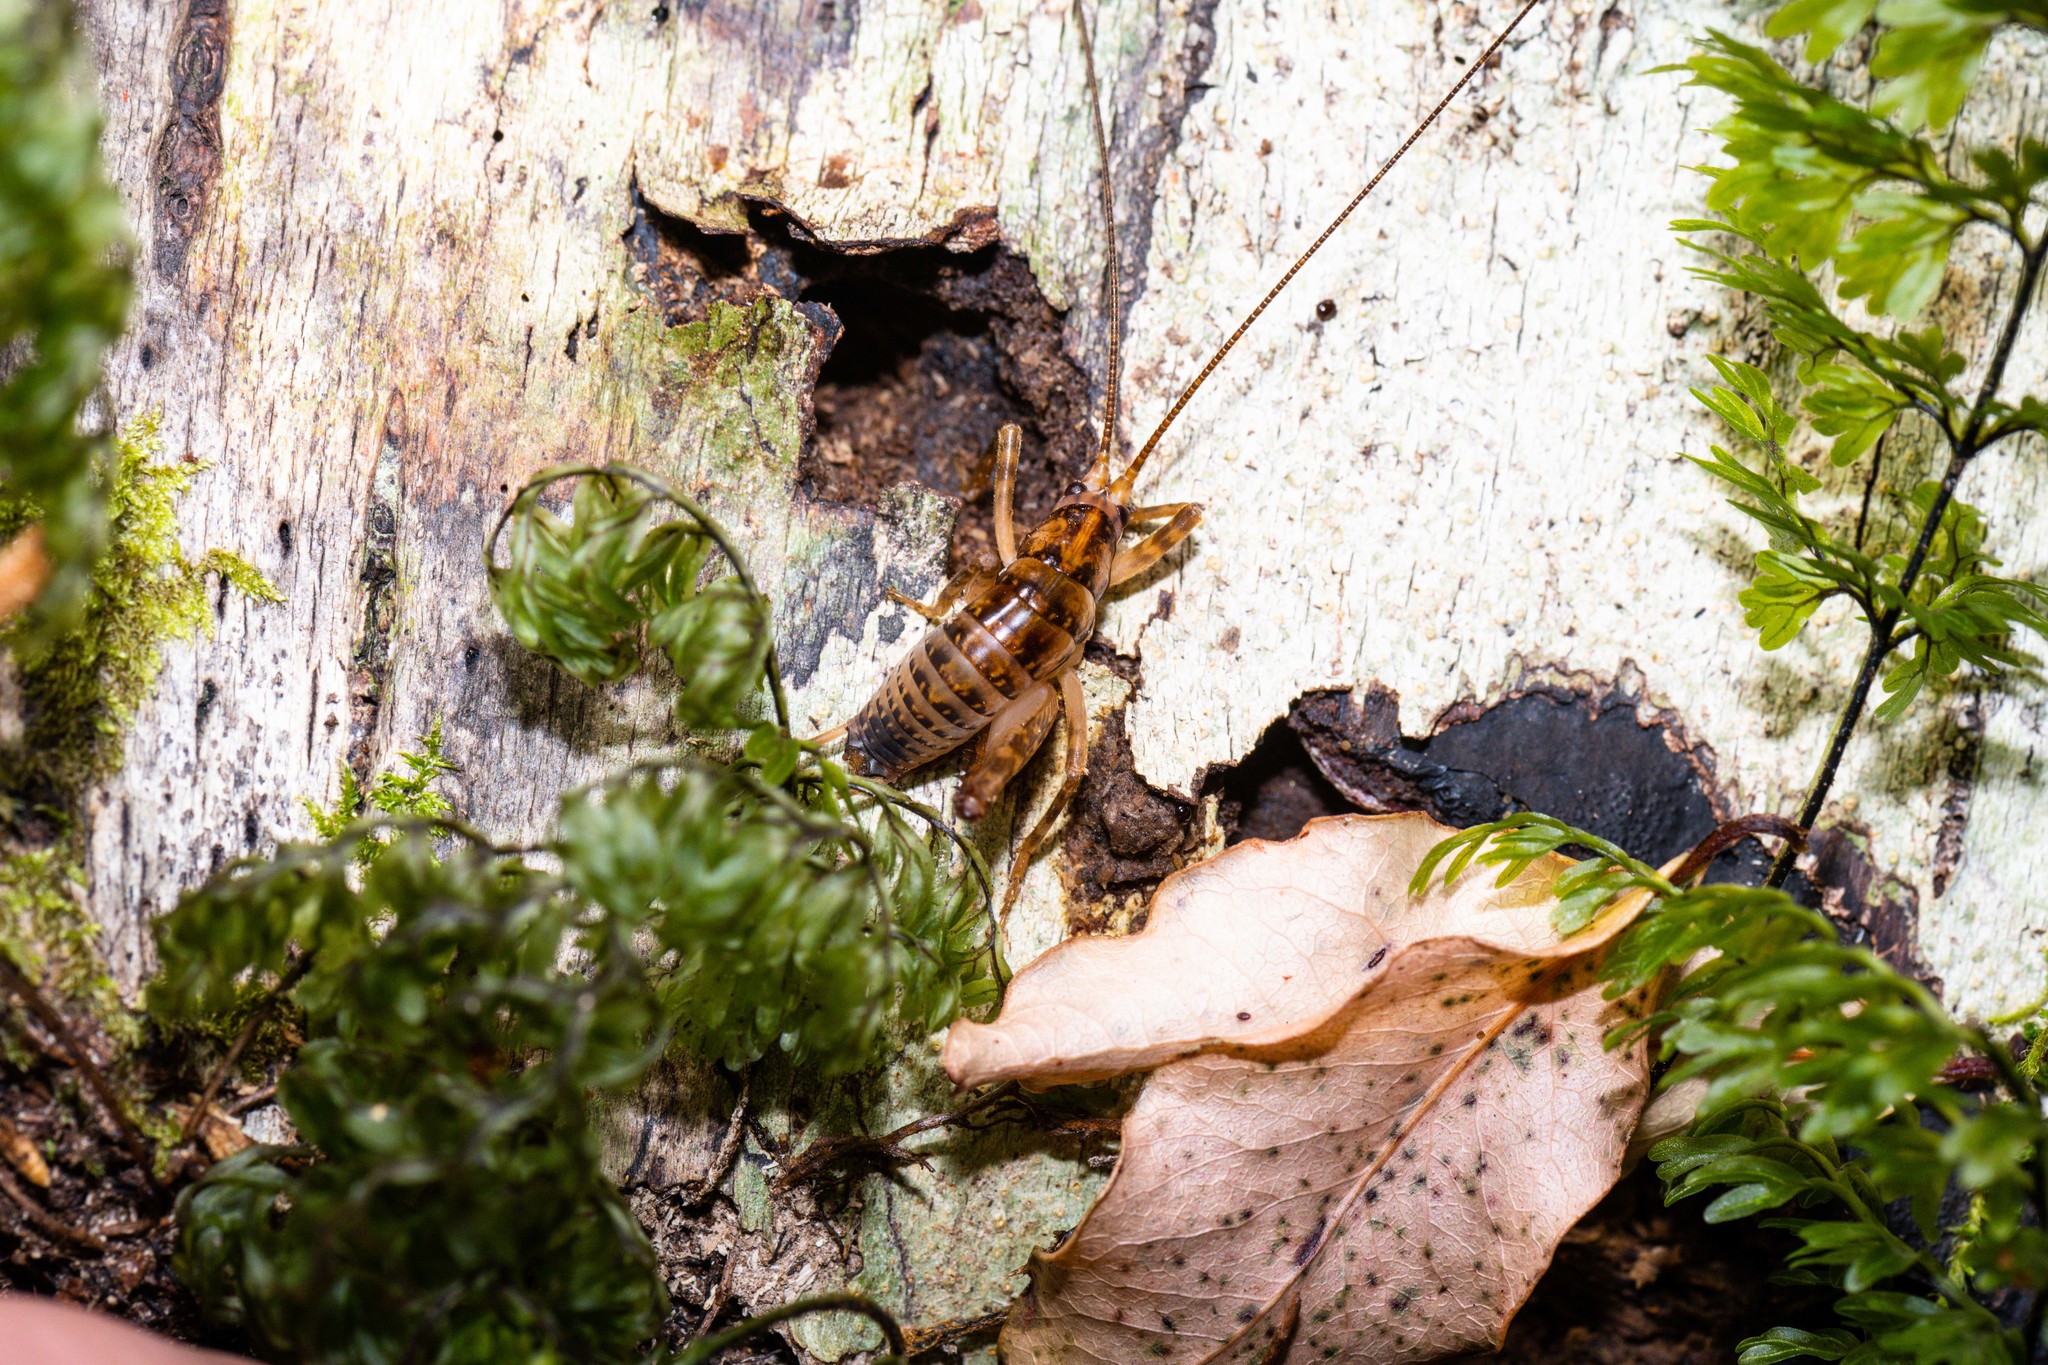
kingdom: Animalia
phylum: Arthropoda
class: Insecta
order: Orthoptera
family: Rhaphidophoridae
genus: Talitropsis
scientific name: Talitropsis sedilloti
